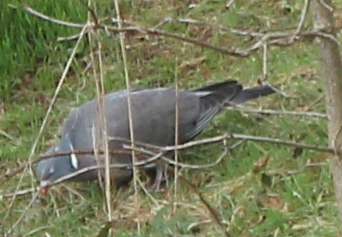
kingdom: Animalia
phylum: Chordata
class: Aves
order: Columbiformes
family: Columbidae
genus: Columba
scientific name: Columba palumbus
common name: Common wood pigeon
